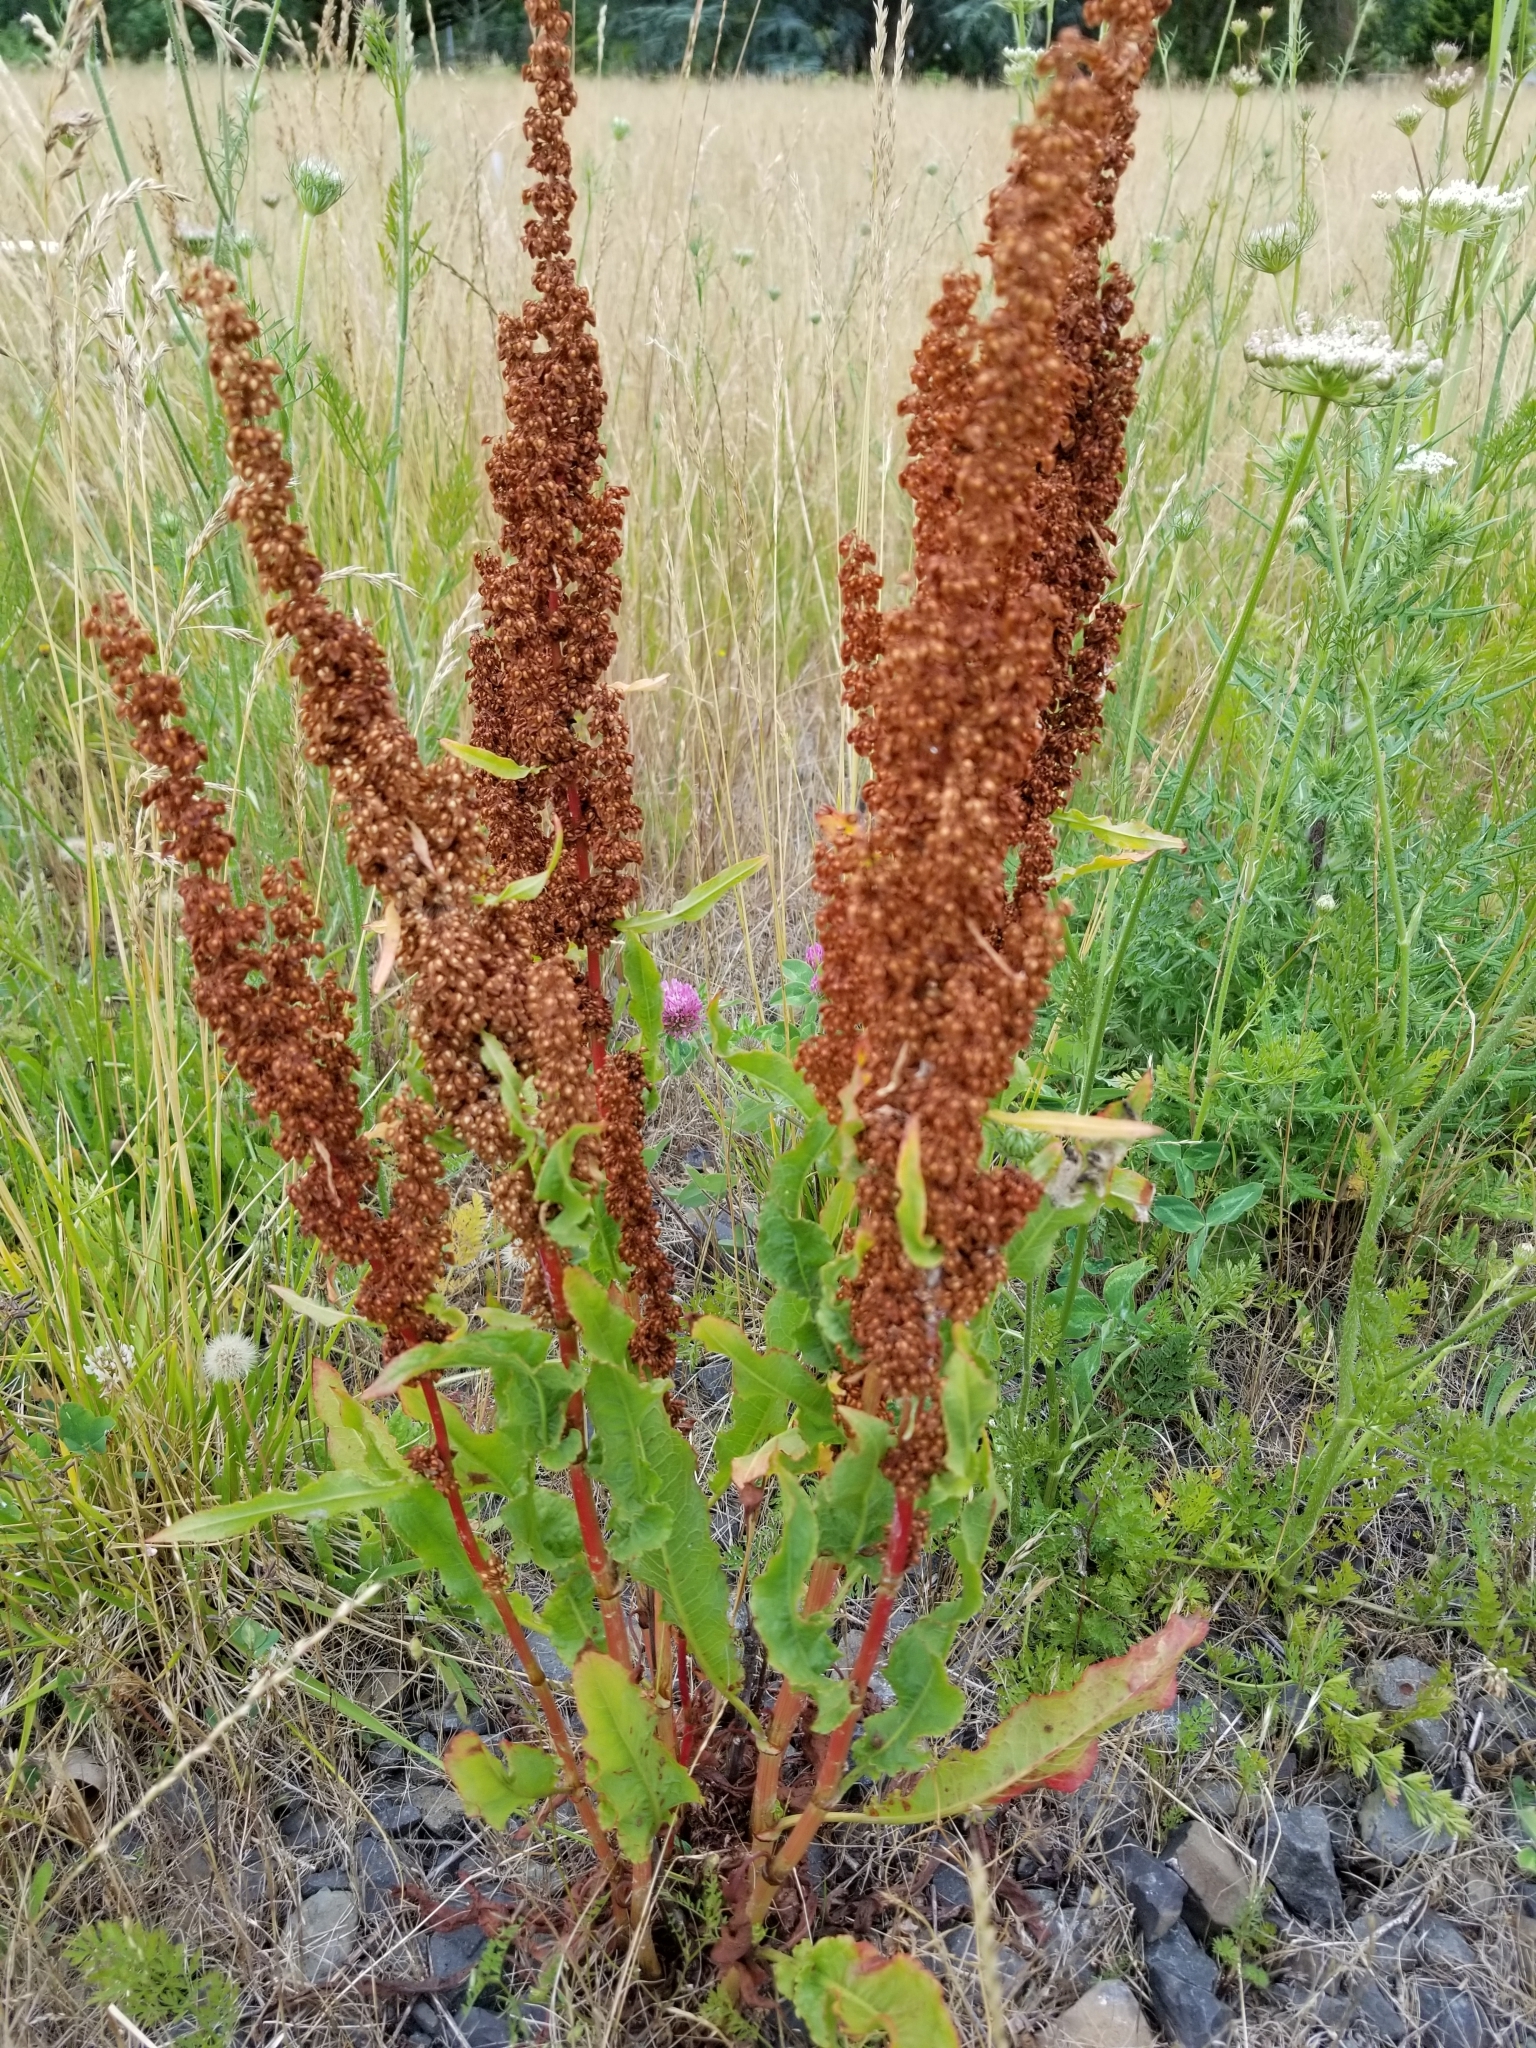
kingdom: Plantae
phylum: Tracheophyta
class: Magnoliopsida
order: Caryophyllales
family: Polygonaceae
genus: Rumex
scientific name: Rumex crispus
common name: Curled dock
